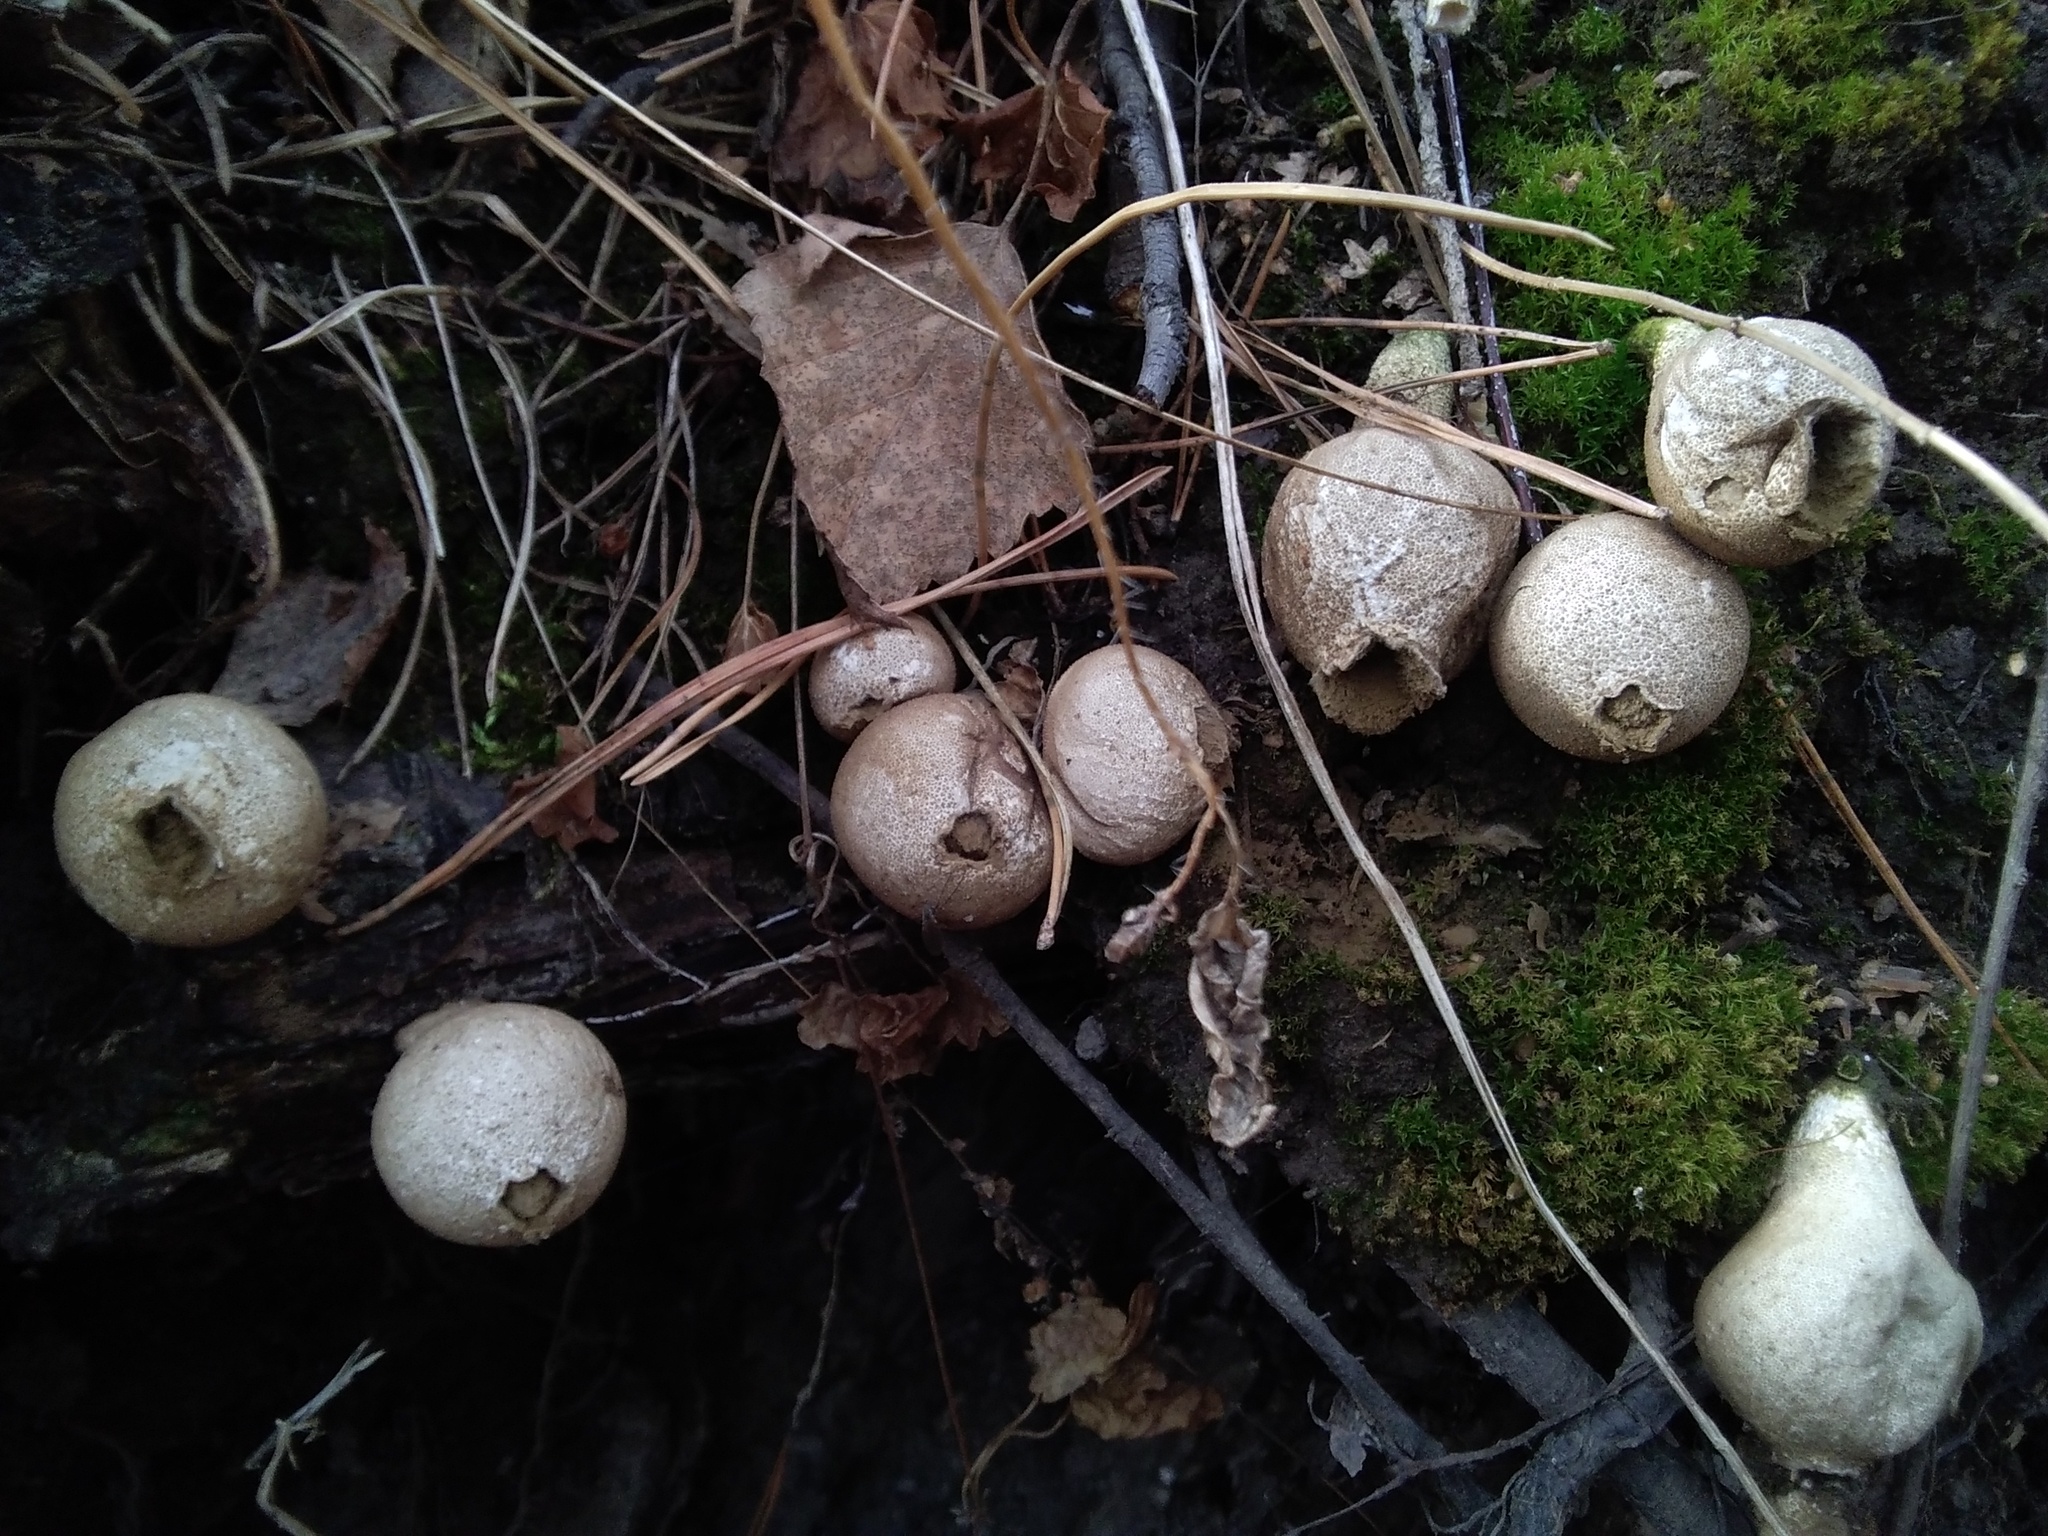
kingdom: Fungi
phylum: Basidiomycota
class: Agaricomycetes
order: Agaricales
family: Lycoperdaceae
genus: Apioperdon
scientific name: Apioperdon pyriforme
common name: Pear-shaped puffball
